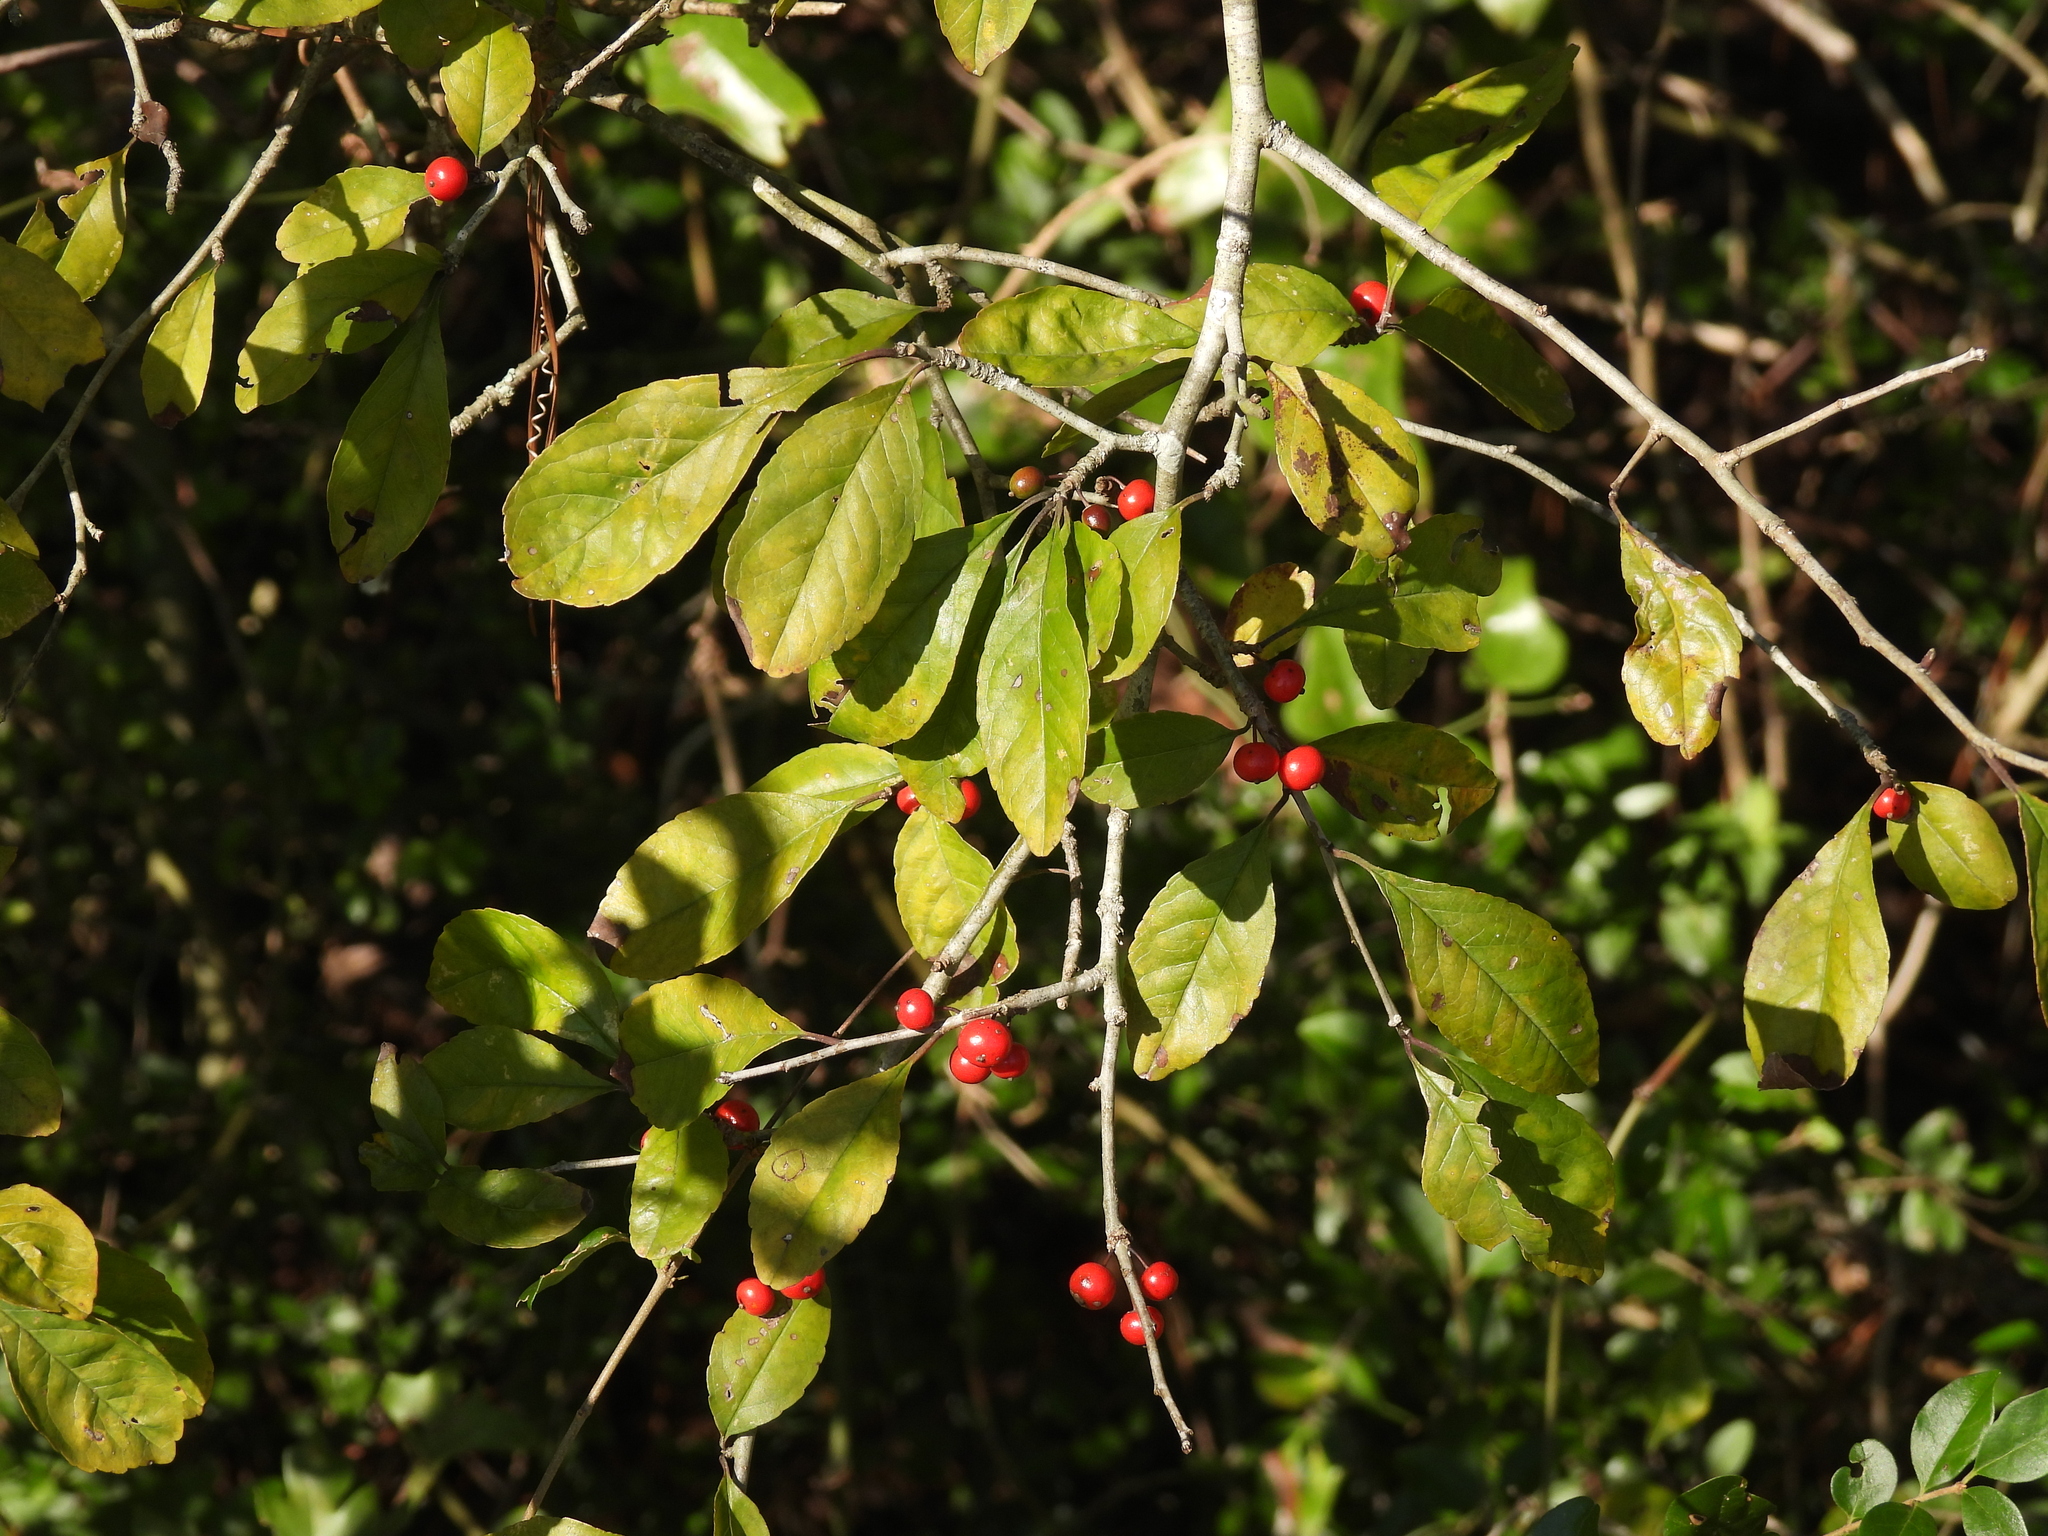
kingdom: Plantae
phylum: Tracheophyta
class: Magnoliopsida
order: Aquifoliales
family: Aquifoliaceae
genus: Ilex
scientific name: Ilex decidua
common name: Possum-haw
